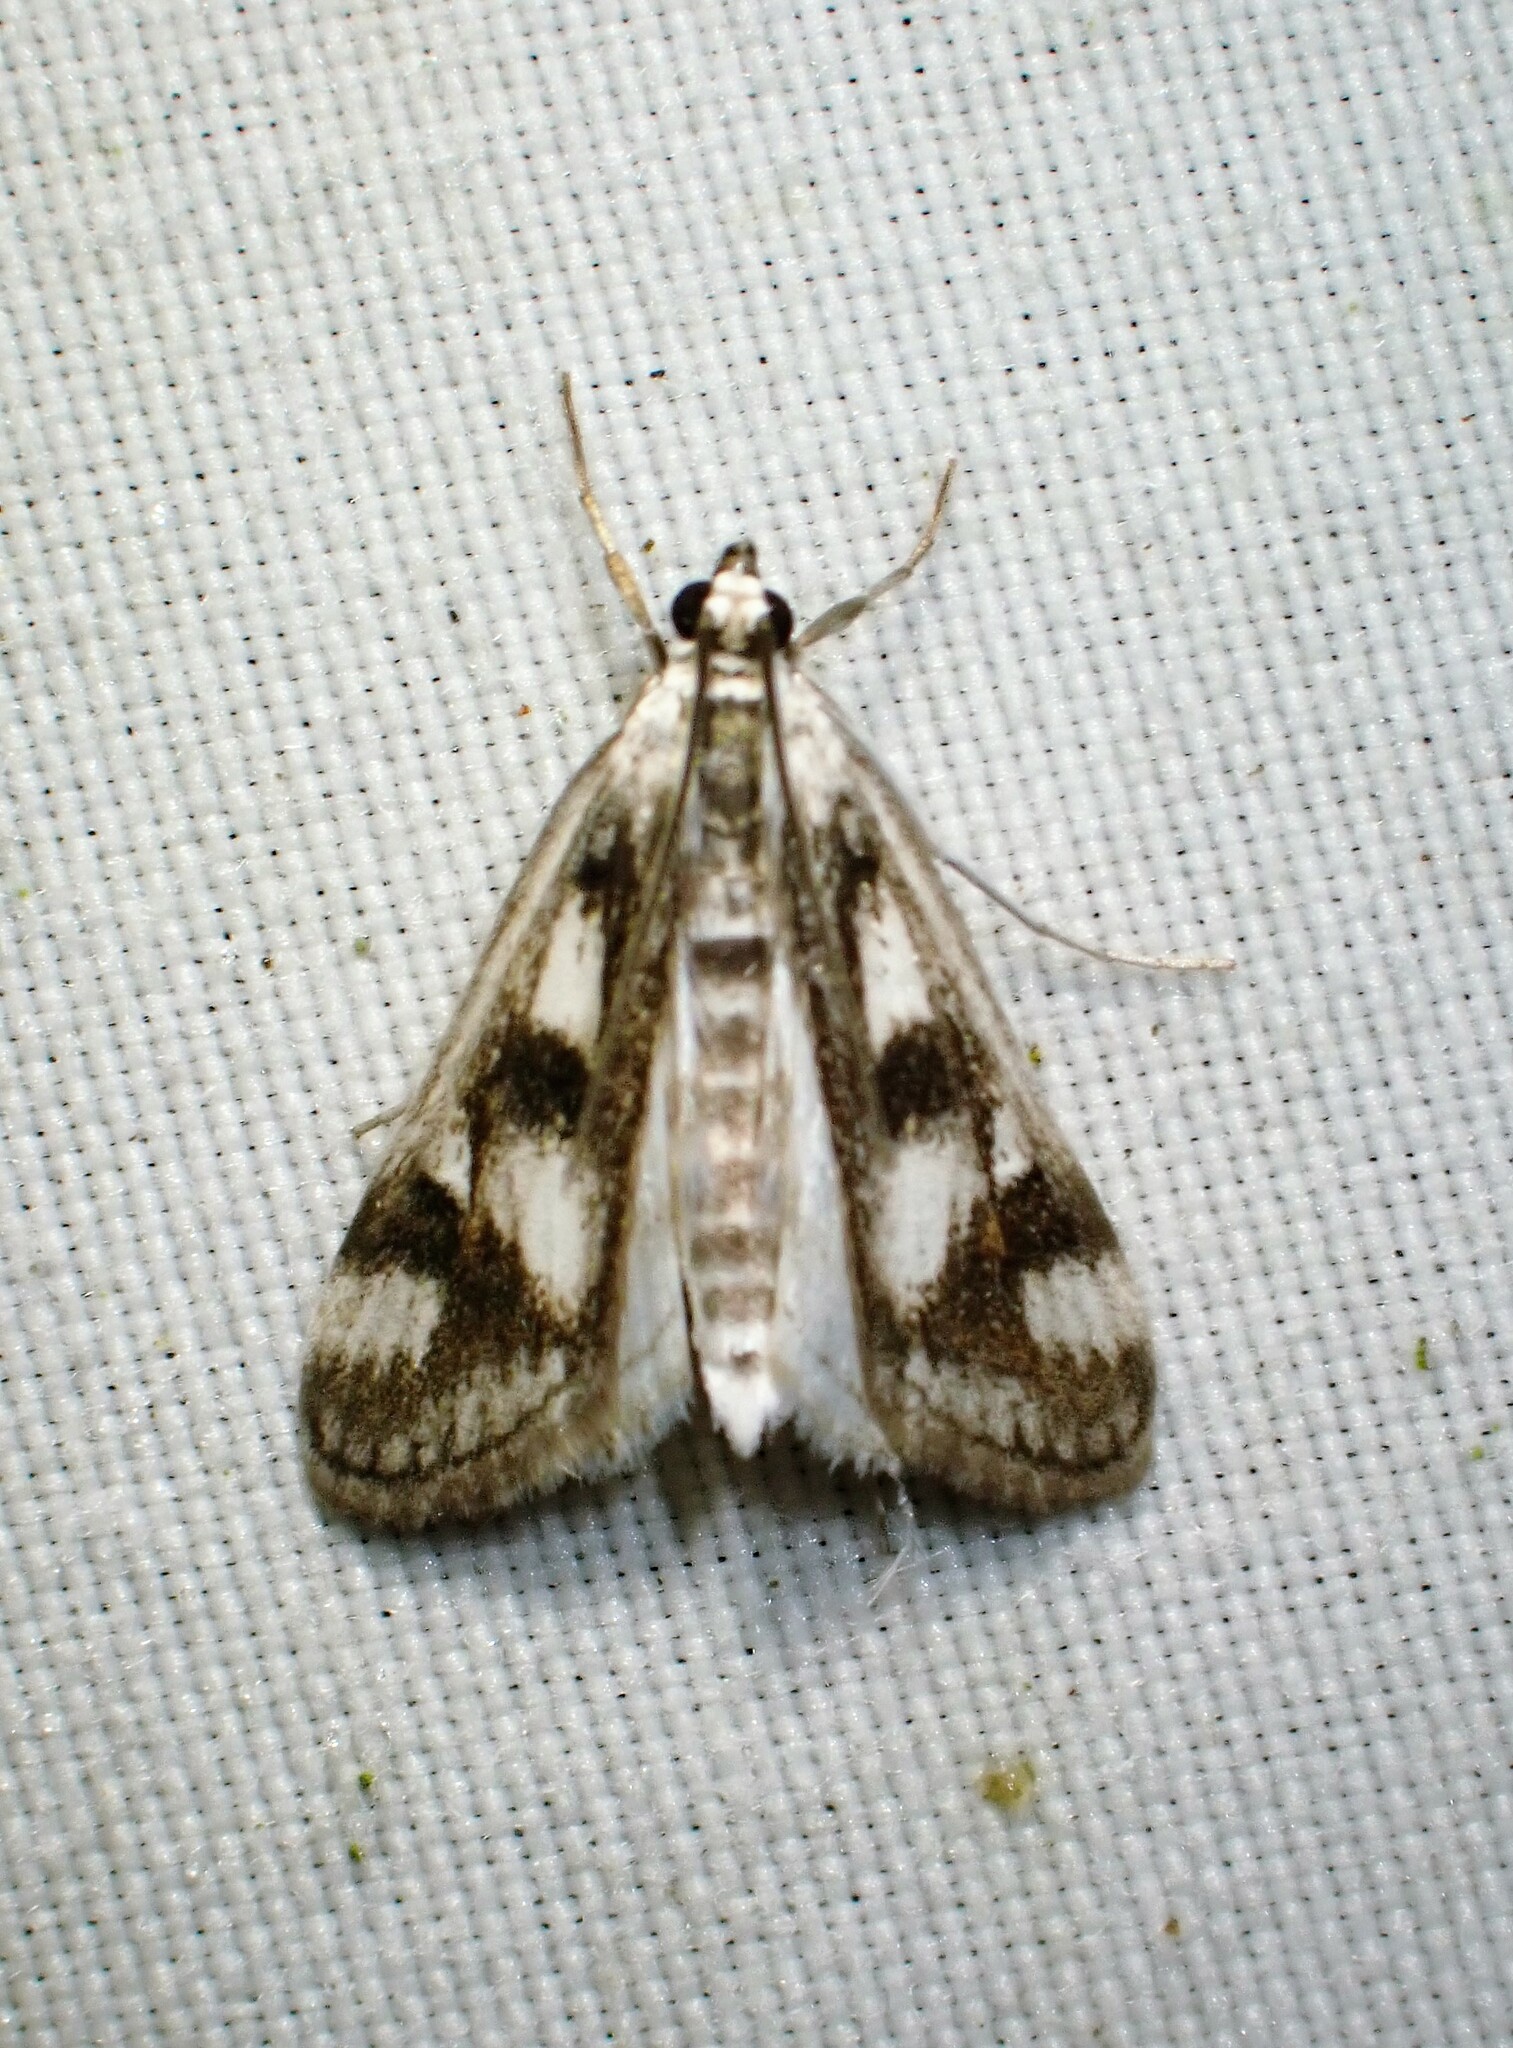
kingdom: Animalia
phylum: Arthropoda
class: Insecta
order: Lepidoptera
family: Crambidae
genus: Parapoynx
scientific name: Parapoynx maculalis
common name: Polymorphic pondweed moth
